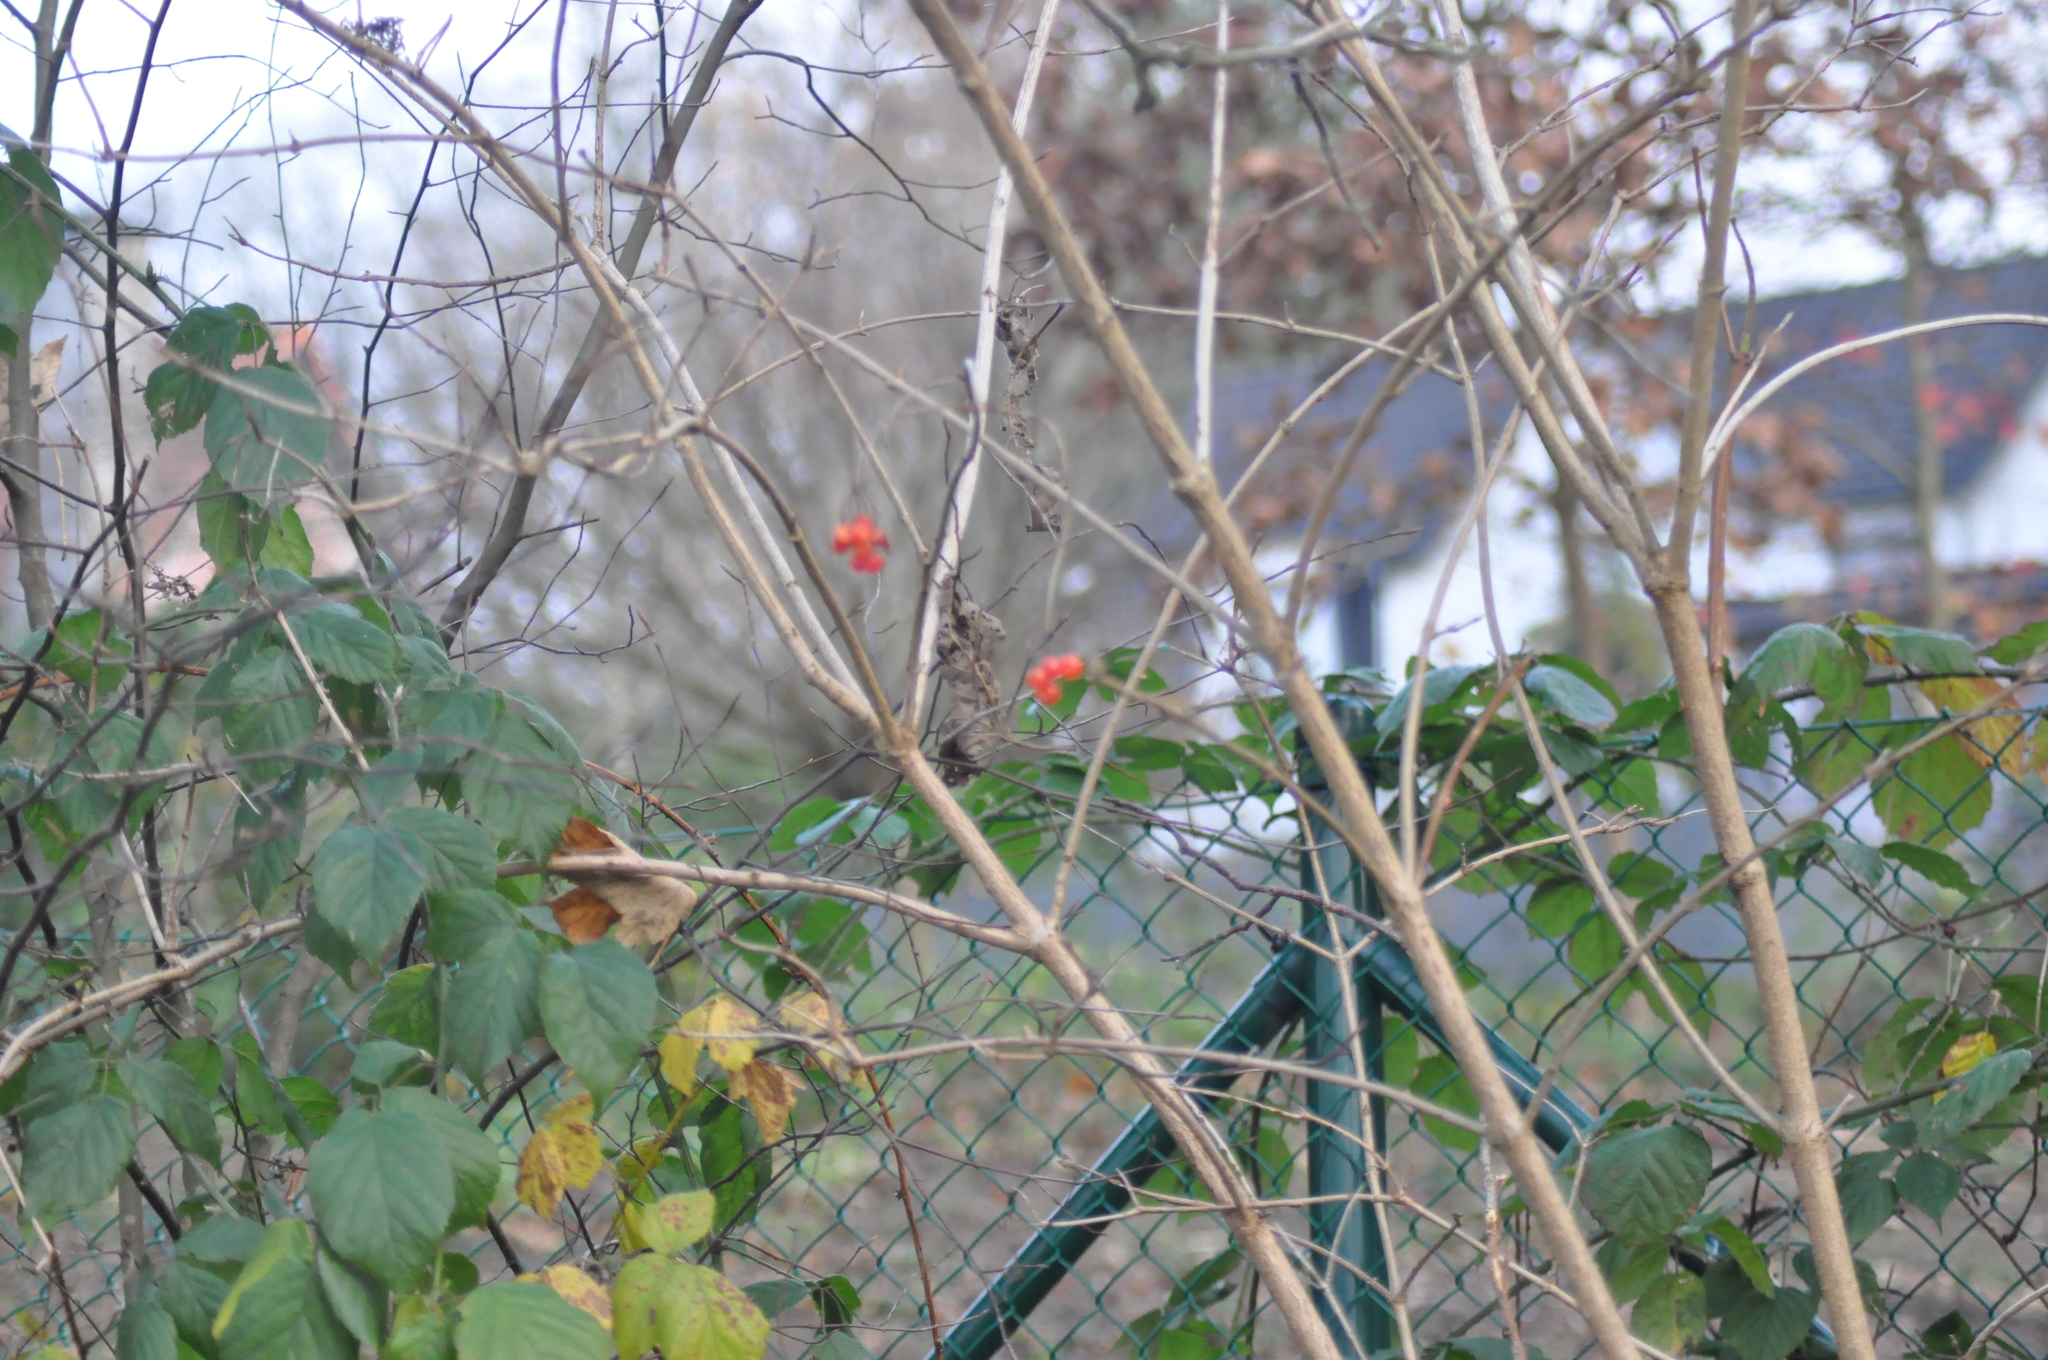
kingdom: Plantae
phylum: Tracheophyta
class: Magnoliopsida
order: Dipsacales
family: Viburnaceae
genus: Viburnum
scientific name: Viburnum opulus
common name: Guelder-rose
